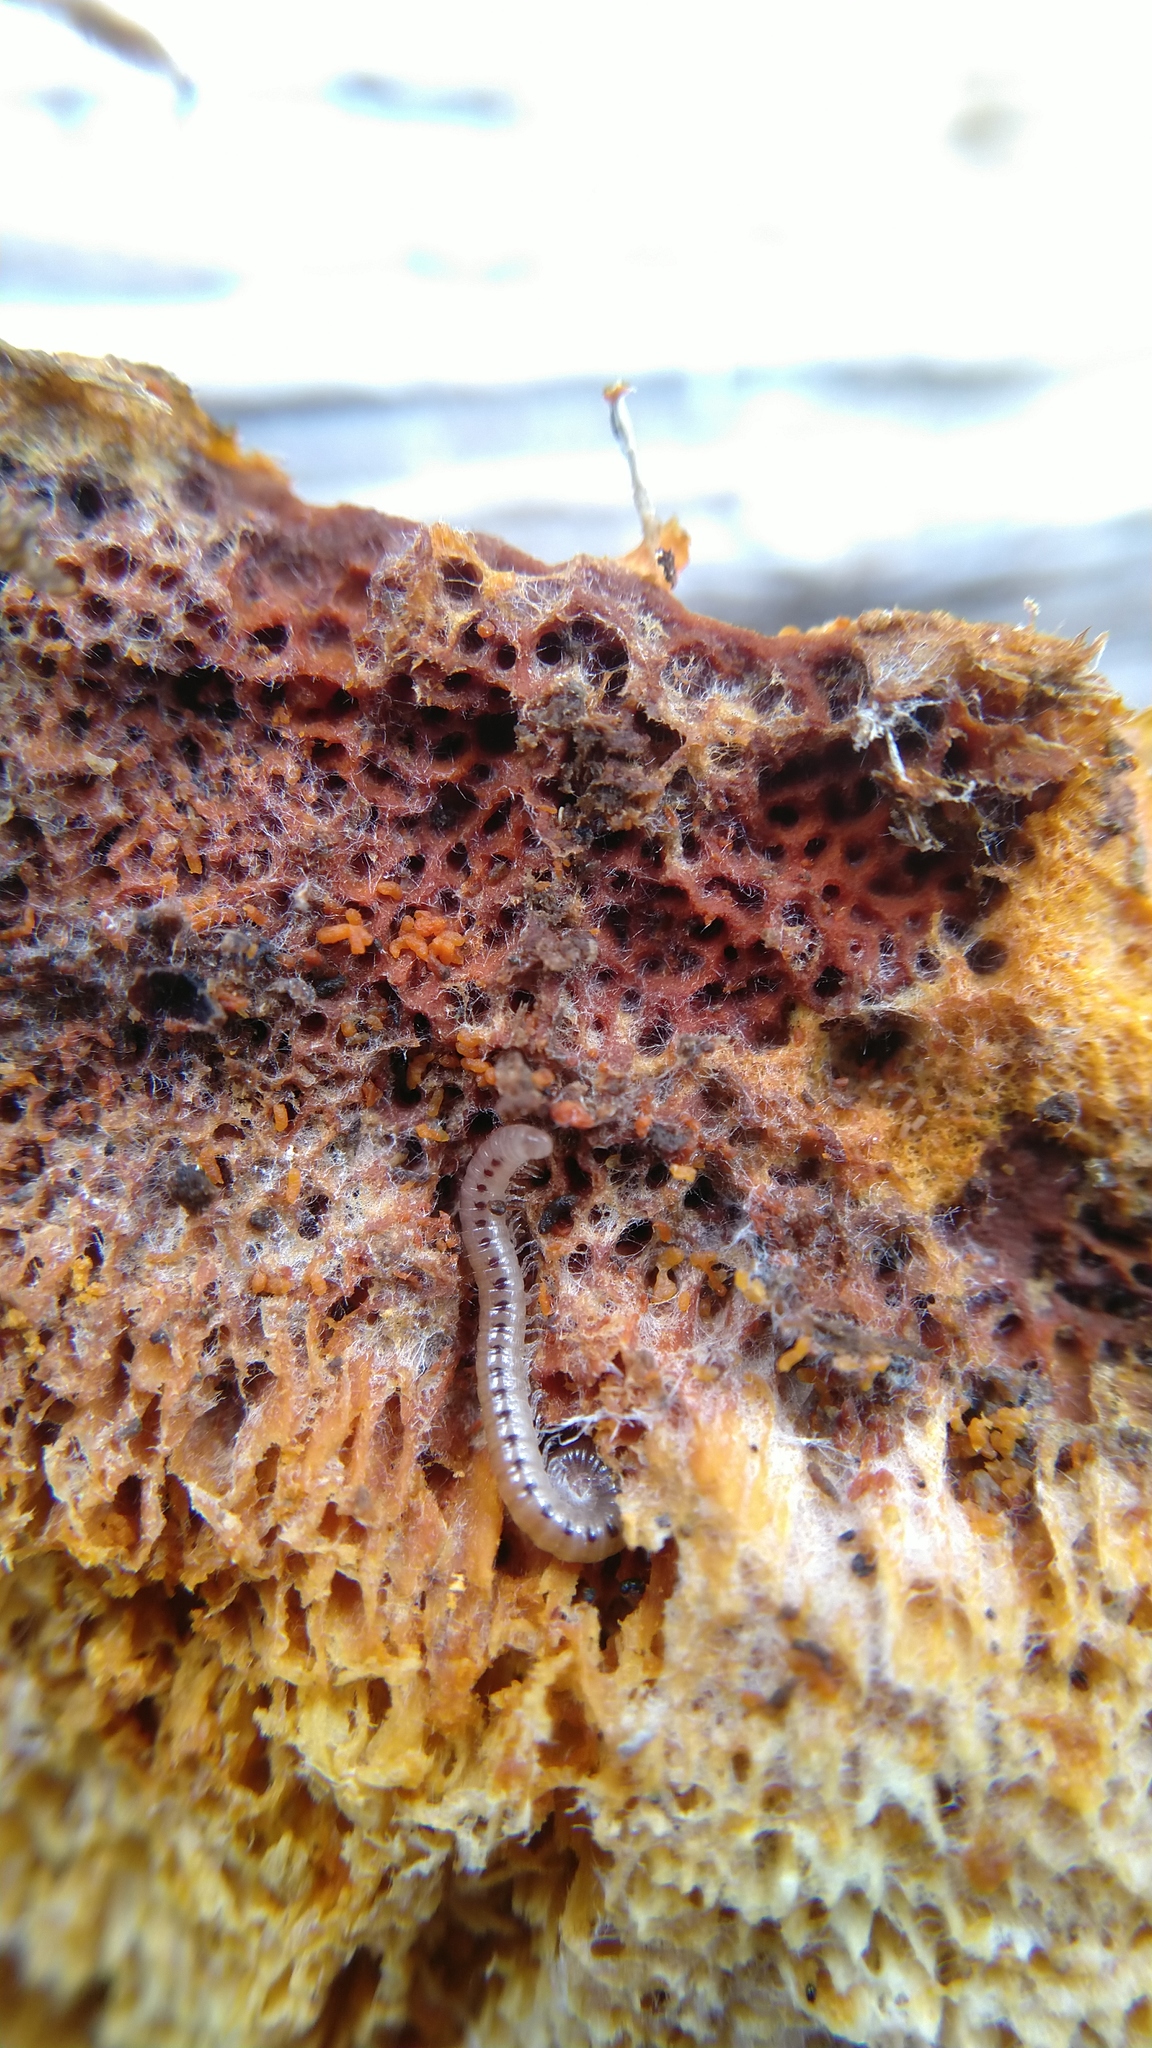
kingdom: Animalia
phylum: Arthropoda
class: Diplopoda
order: Julida
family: Blaniulidae
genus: Proteroiulus
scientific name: Proteroiulus fuscus
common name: Millipede
